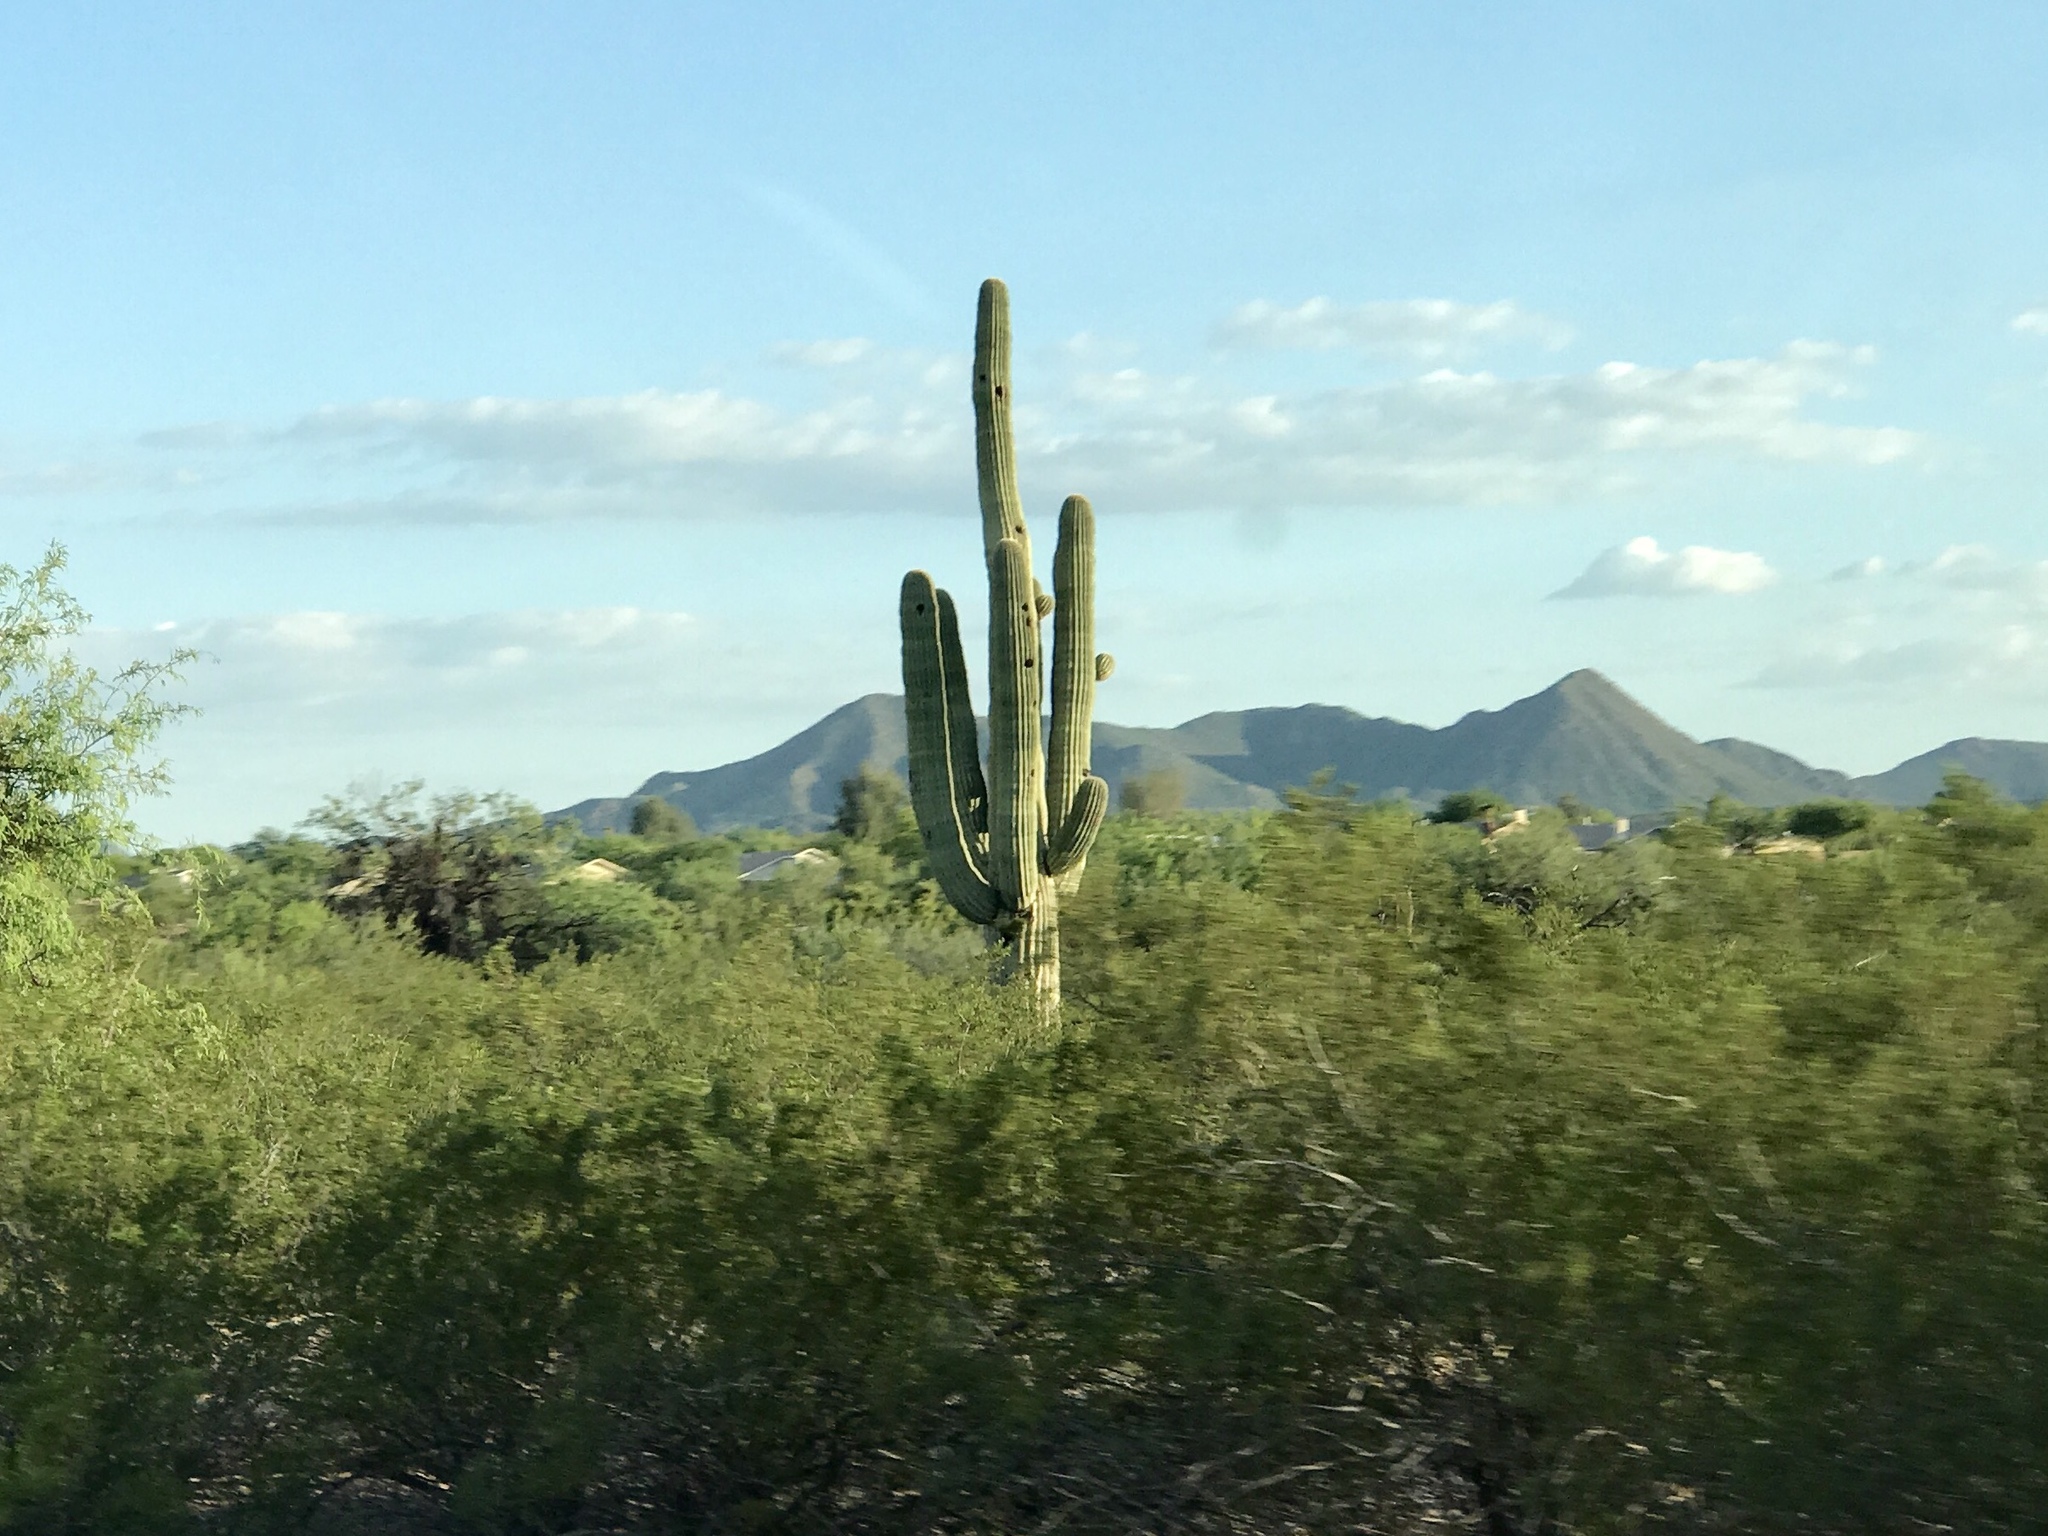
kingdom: Plantae
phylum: Tracheophyta
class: Magnoliopsida
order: Caryophyllales
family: Cactaceae
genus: Carnegiea
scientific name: Carnegiea gigantea
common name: Saguaro
